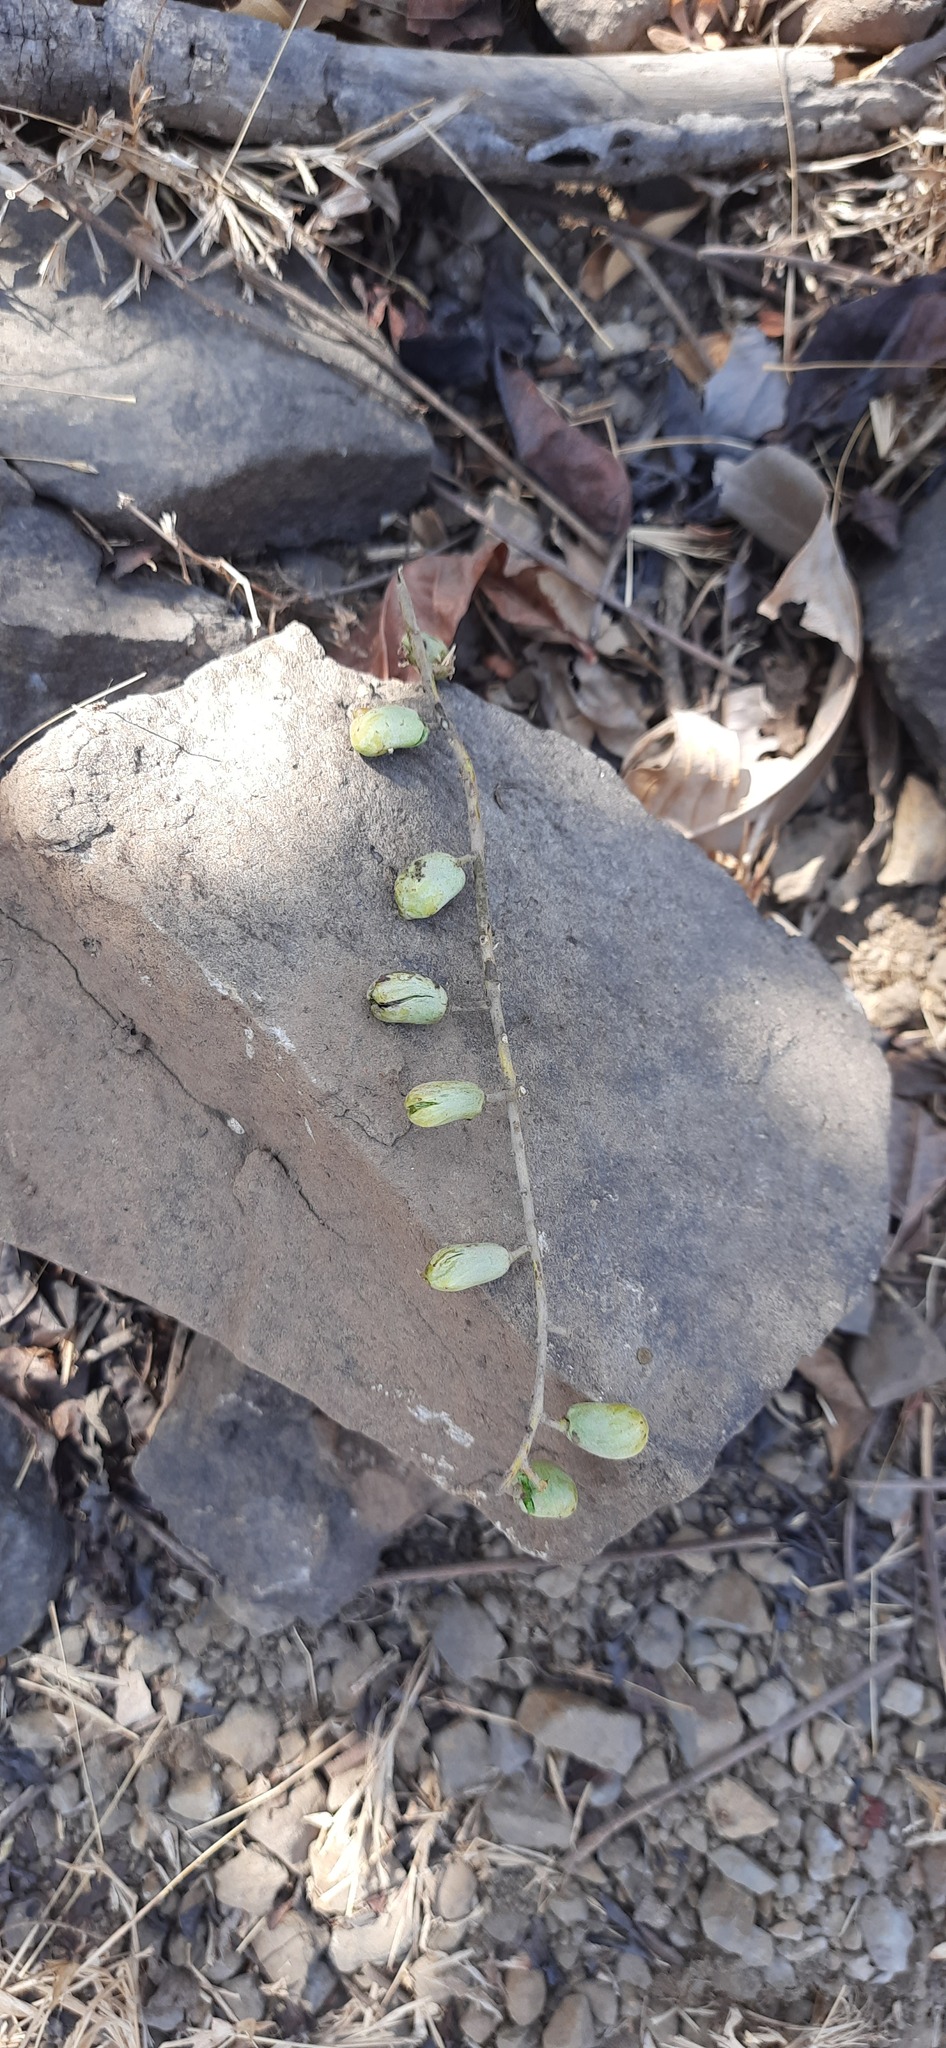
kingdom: Plantae
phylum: Tracheophyta
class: Magnoliopsida
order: Sapindales
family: Anacardiaceae
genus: Lannea
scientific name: Lannea coromandelica
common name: Indian ash tree
